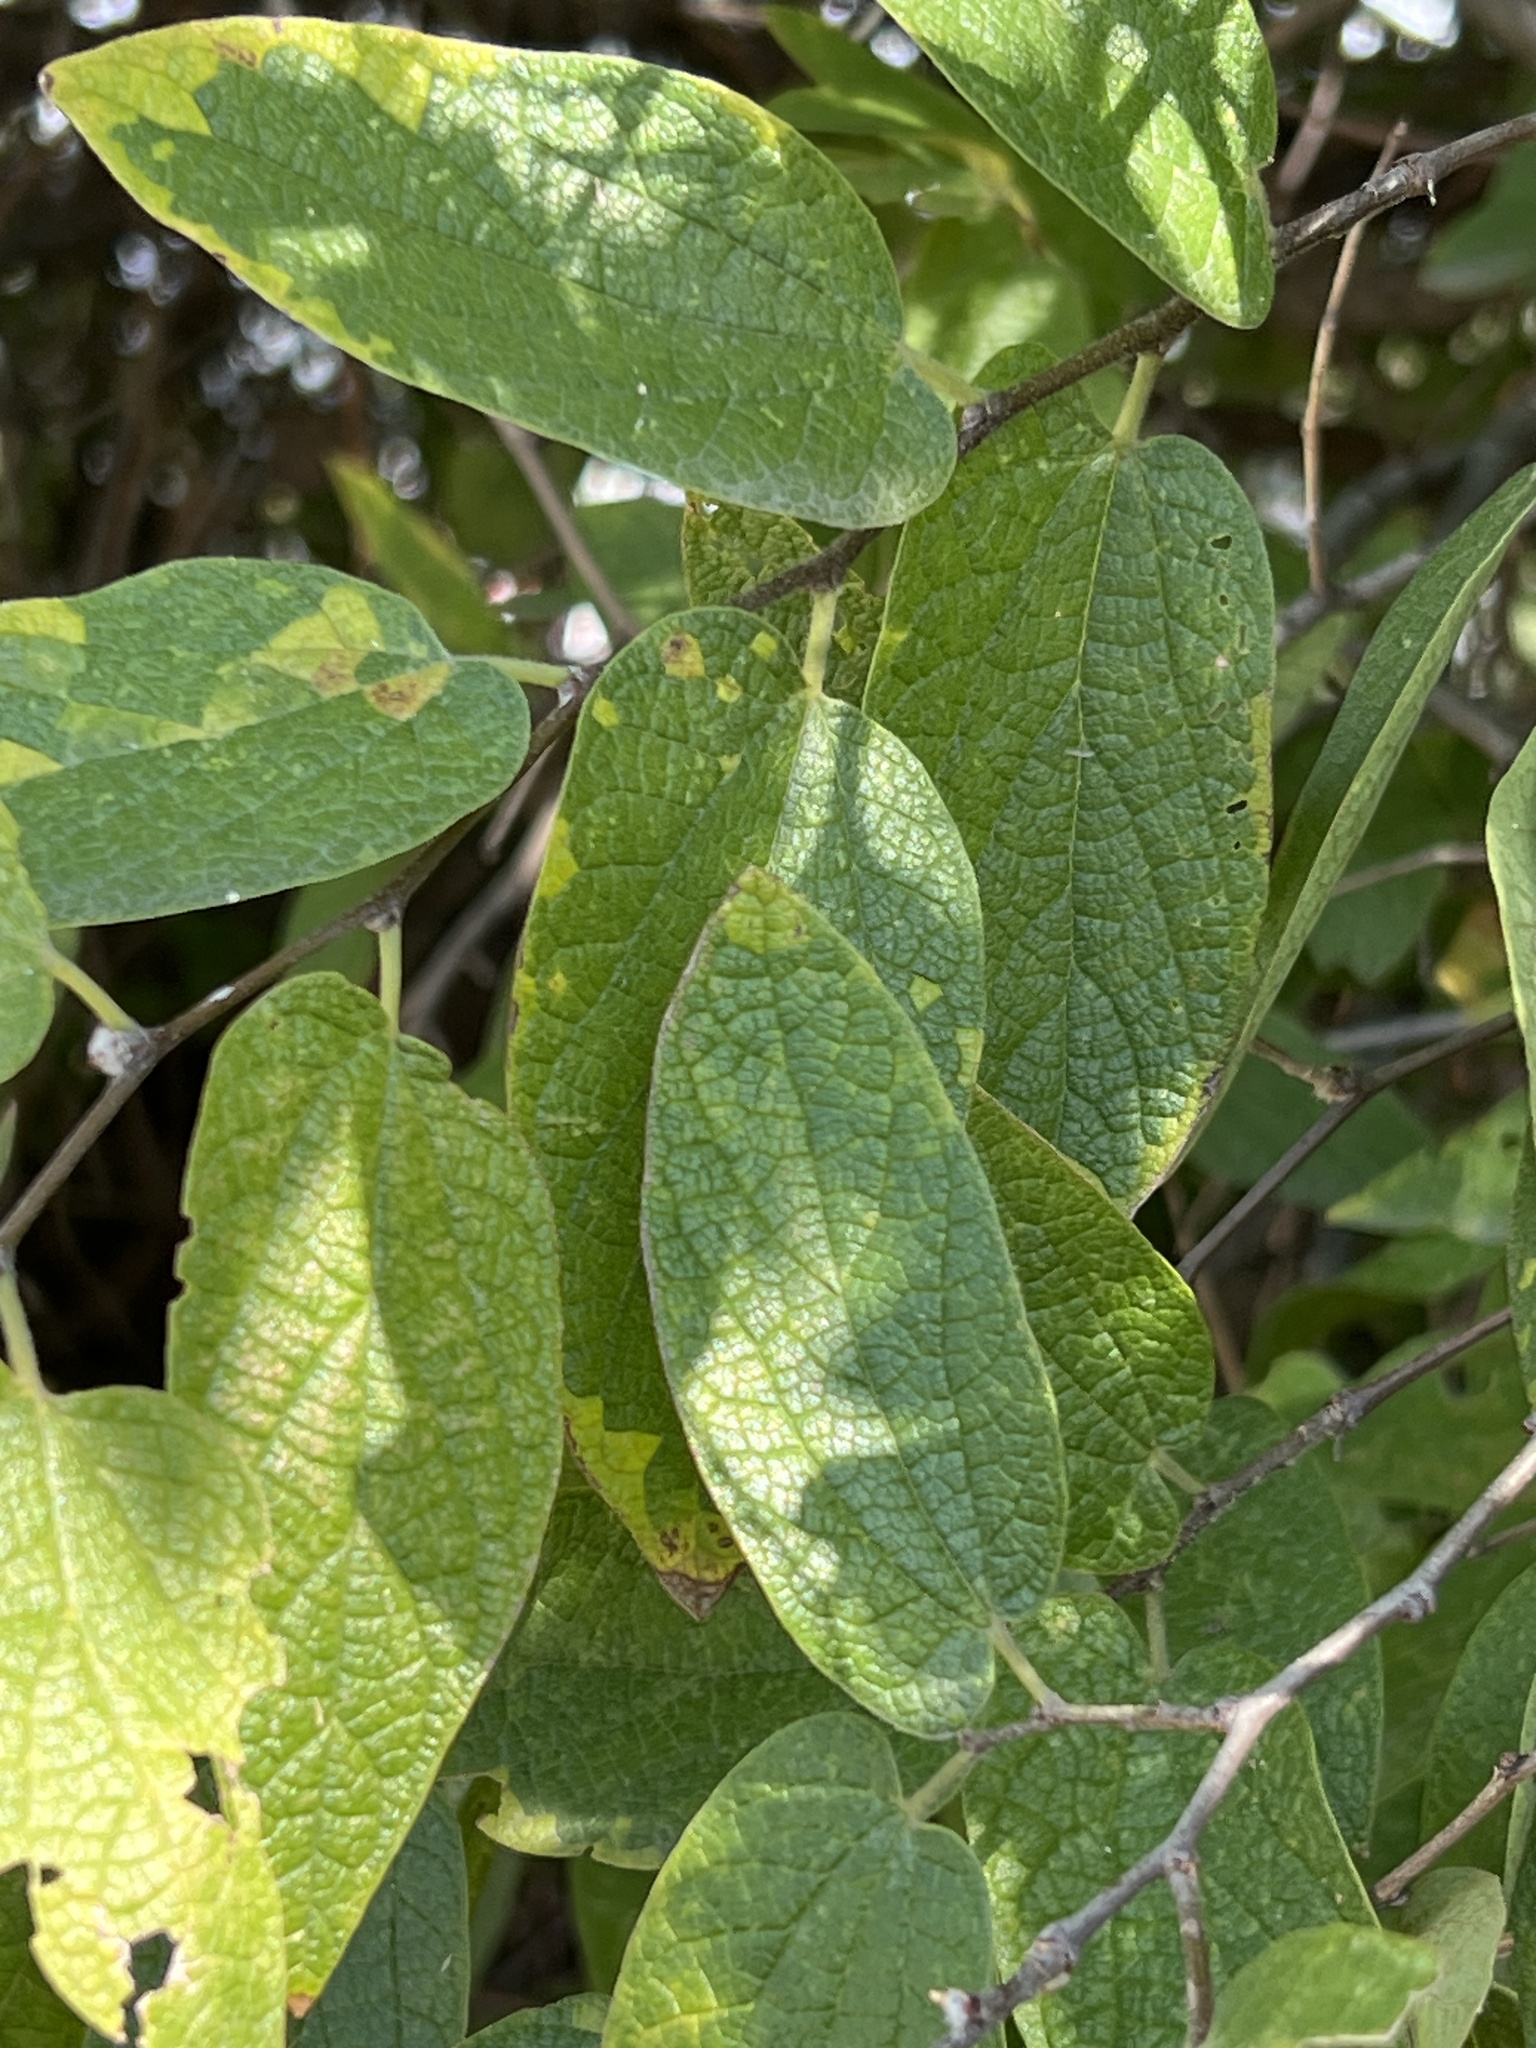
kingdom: Plantae
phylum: Tracheophyta
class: Magnoliopsida
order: Rosales
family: Cannabaceae
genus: Celtis
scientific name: Celtis reticulata
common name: Netleaf hackberry
